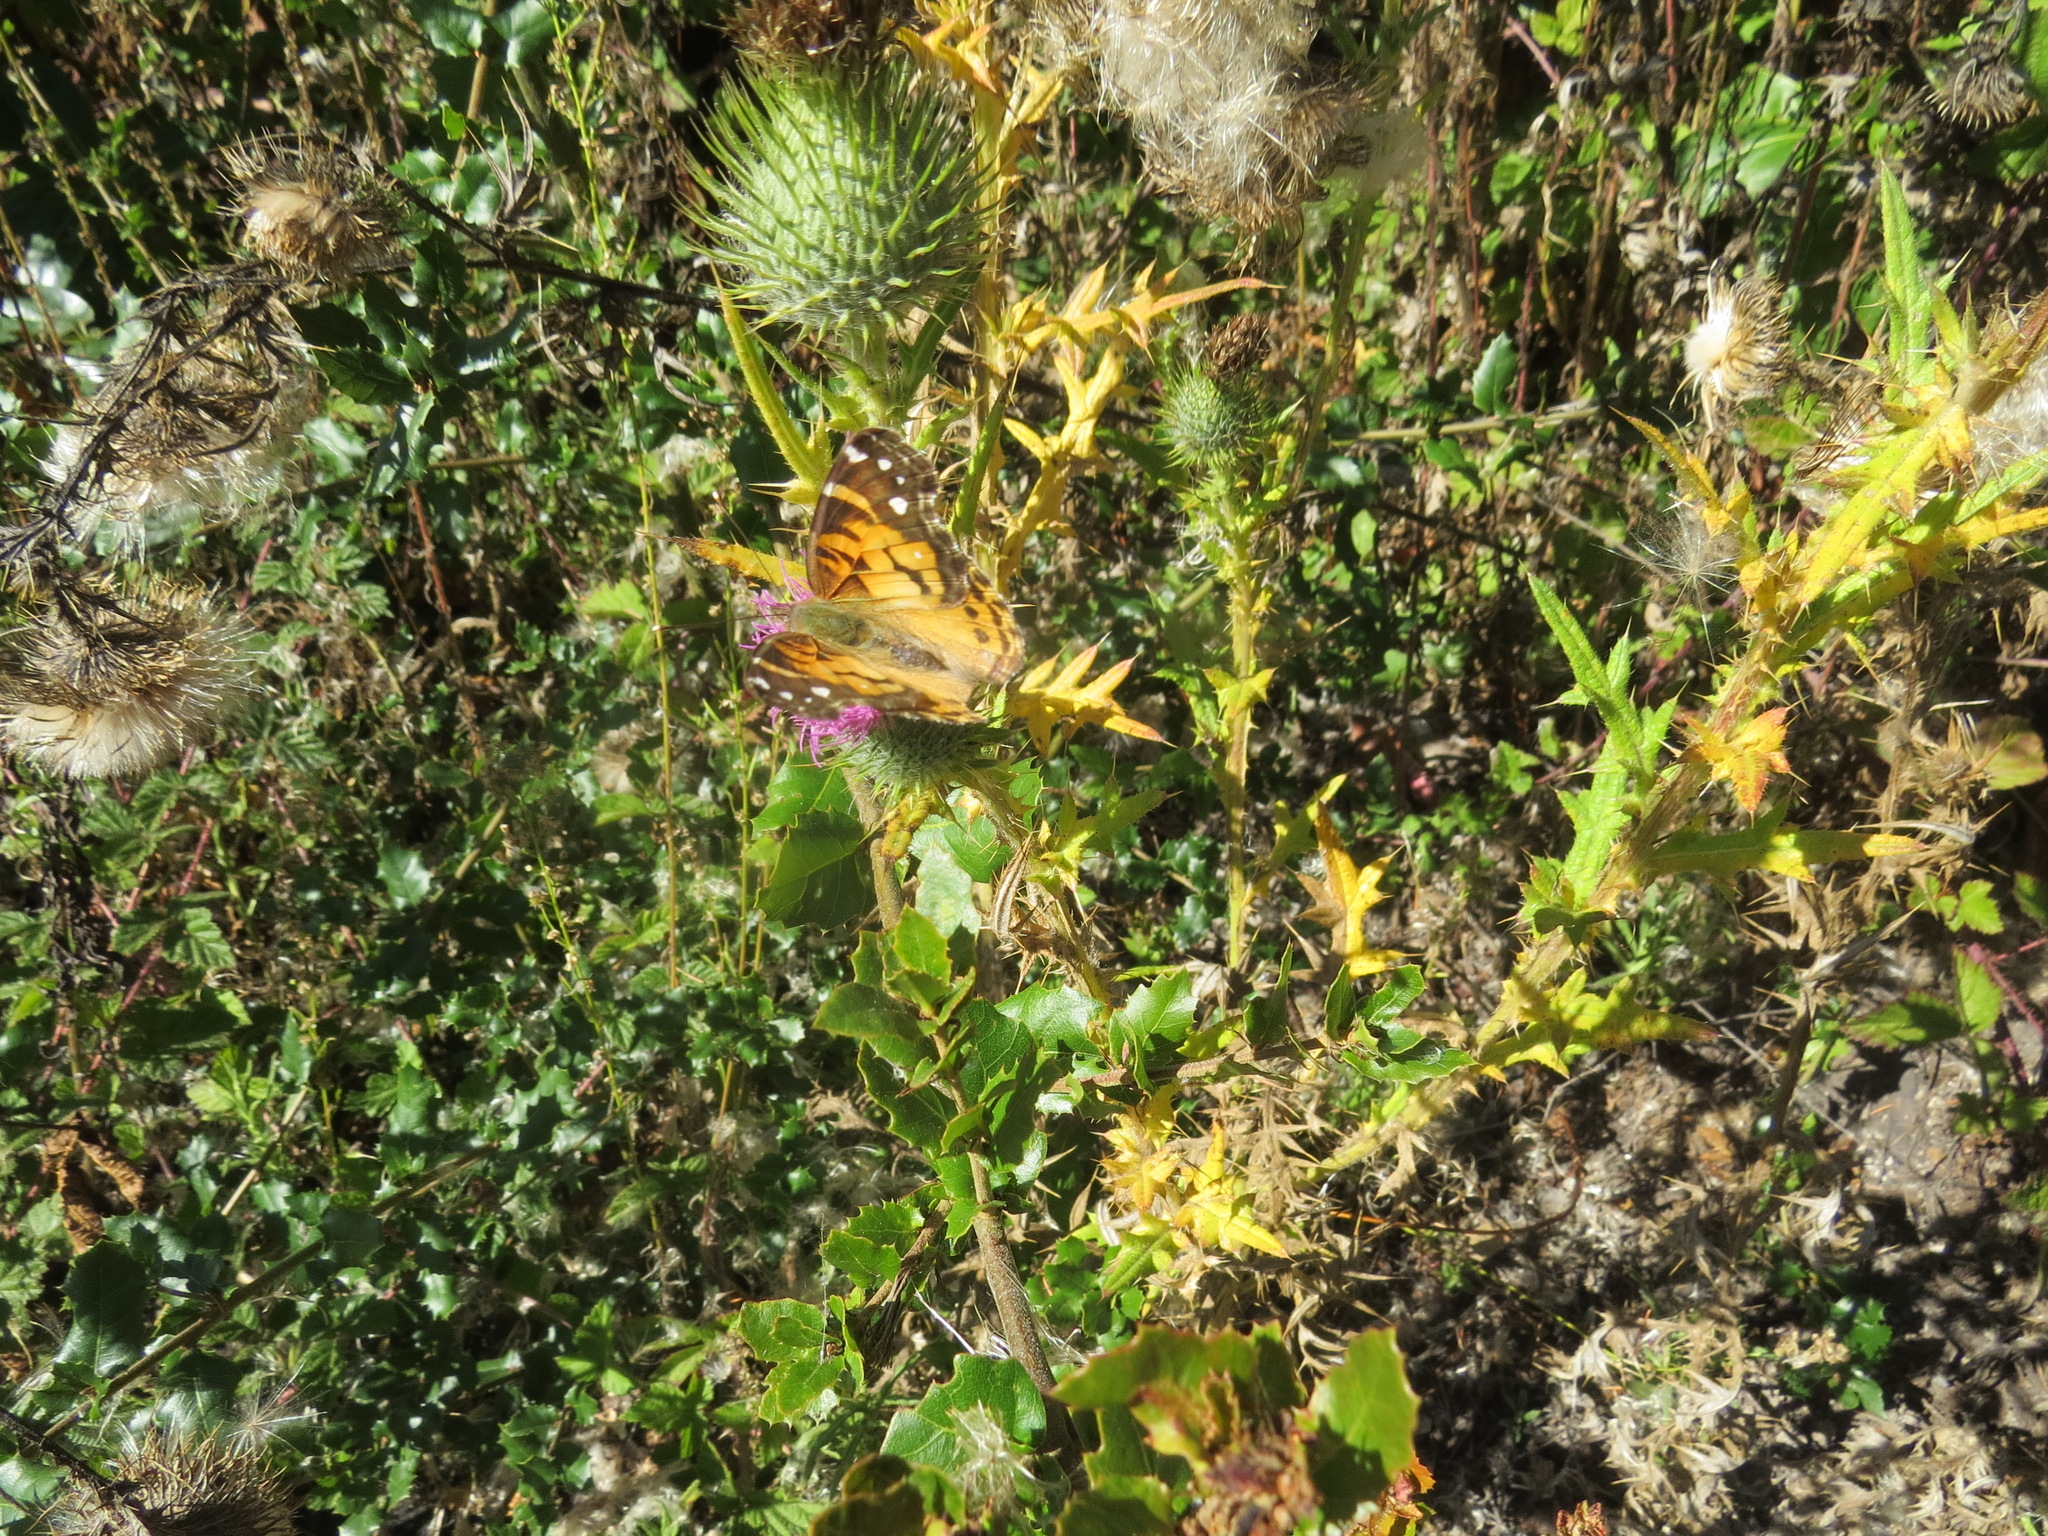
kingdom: Animalia
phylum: Arthropoda
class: Insecta
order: Lepidoptera
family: Nymphalidae
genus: Vanessa
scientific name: Vanessa virginiensis
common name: American lady
